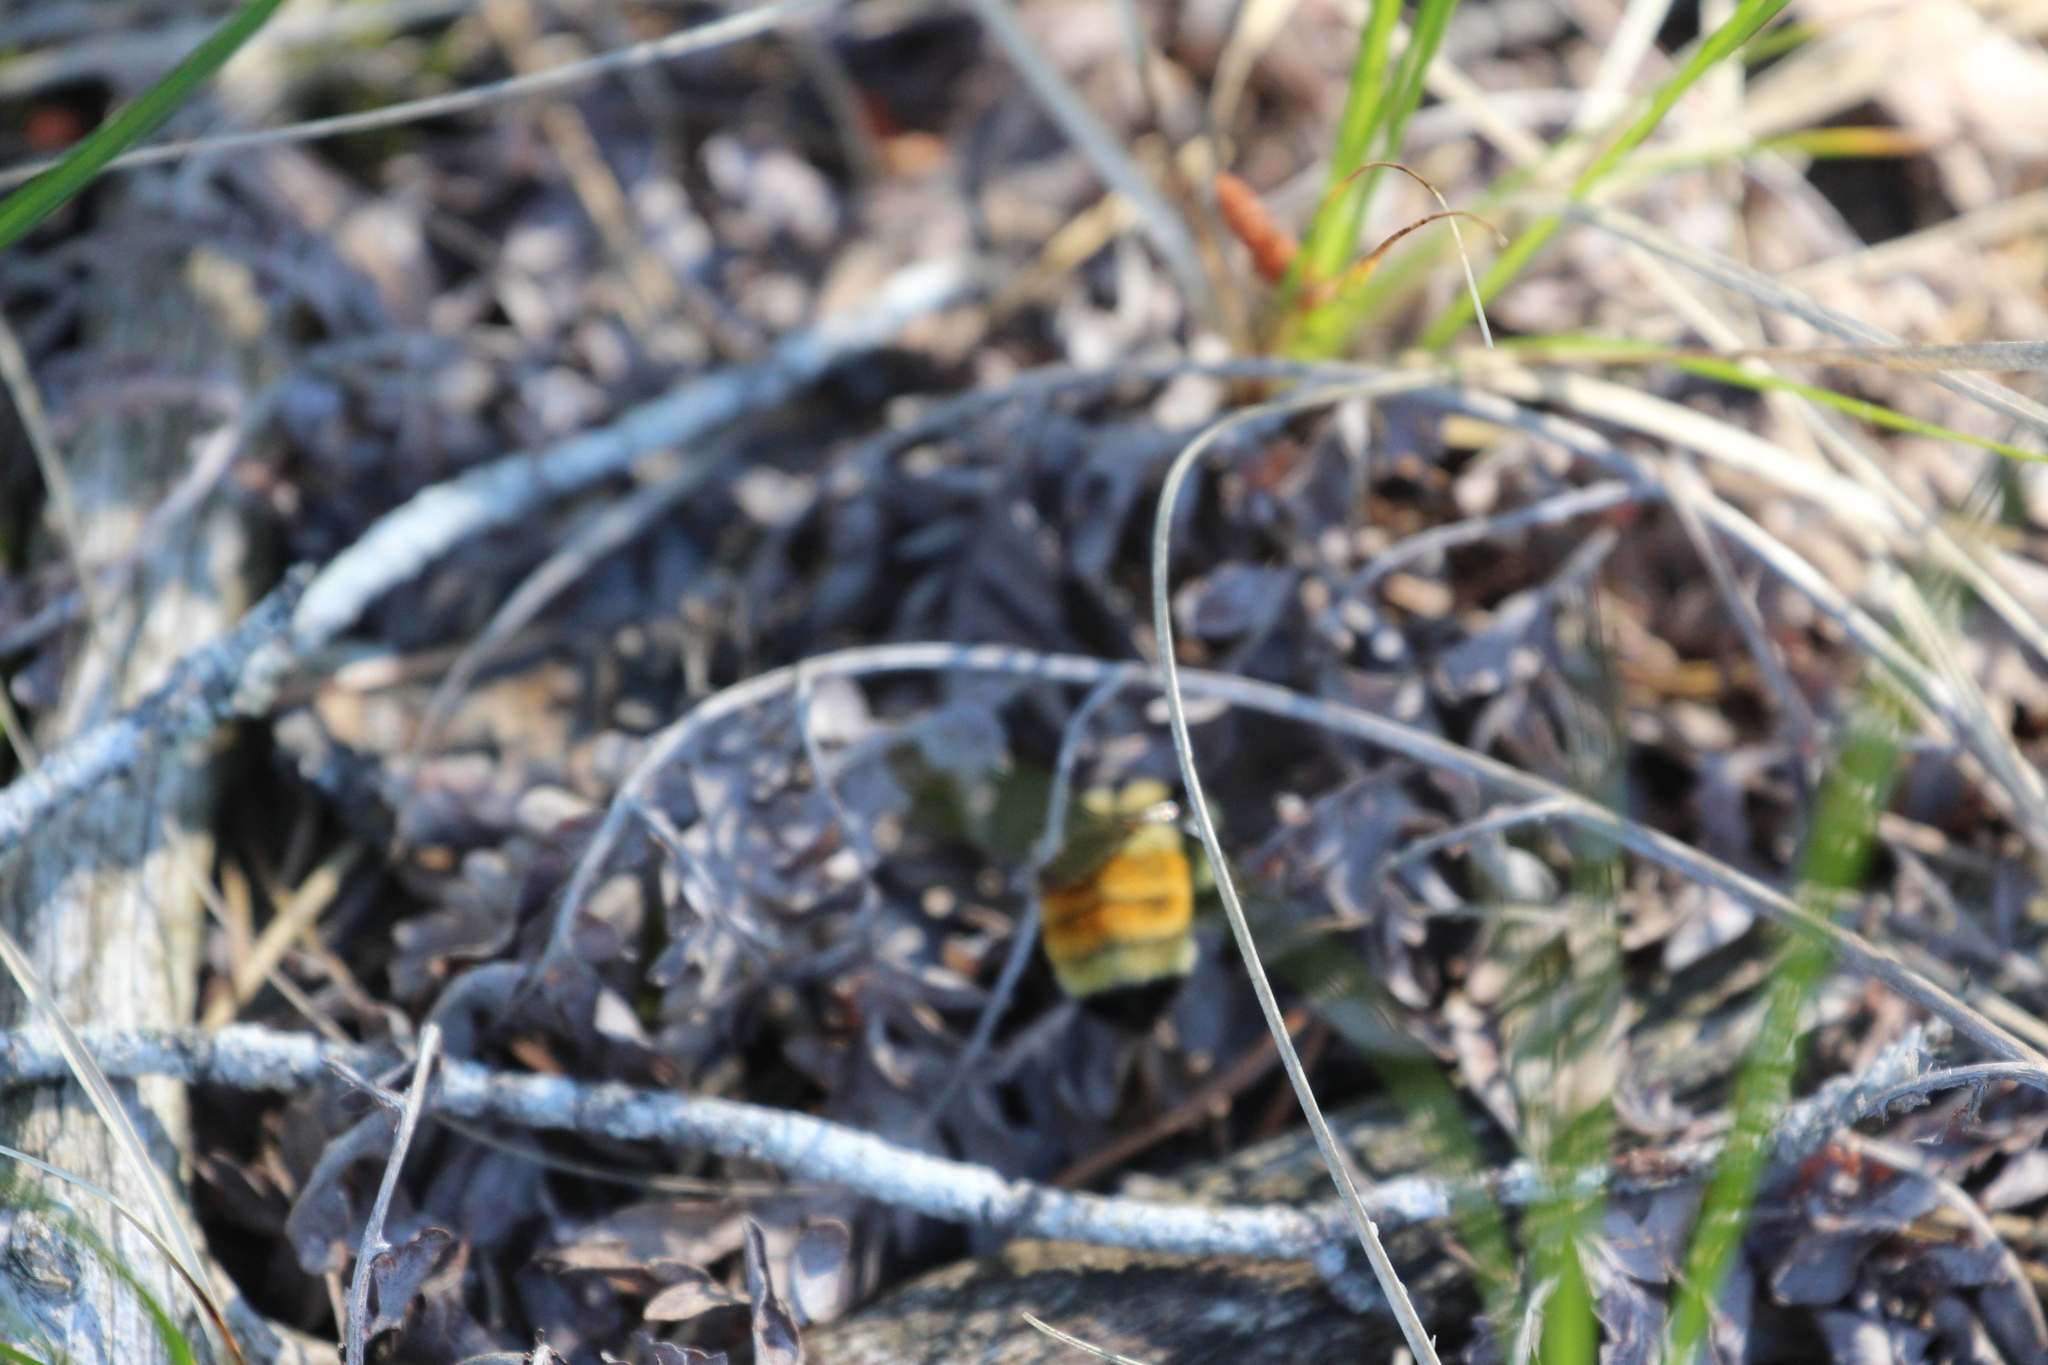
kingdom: Animalia
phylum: Arthropoda
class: Insecta
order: Hymenoptera
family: Apidae
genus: Bombus
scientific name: Bombus ternarius
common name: Tri-colored bumble bee
